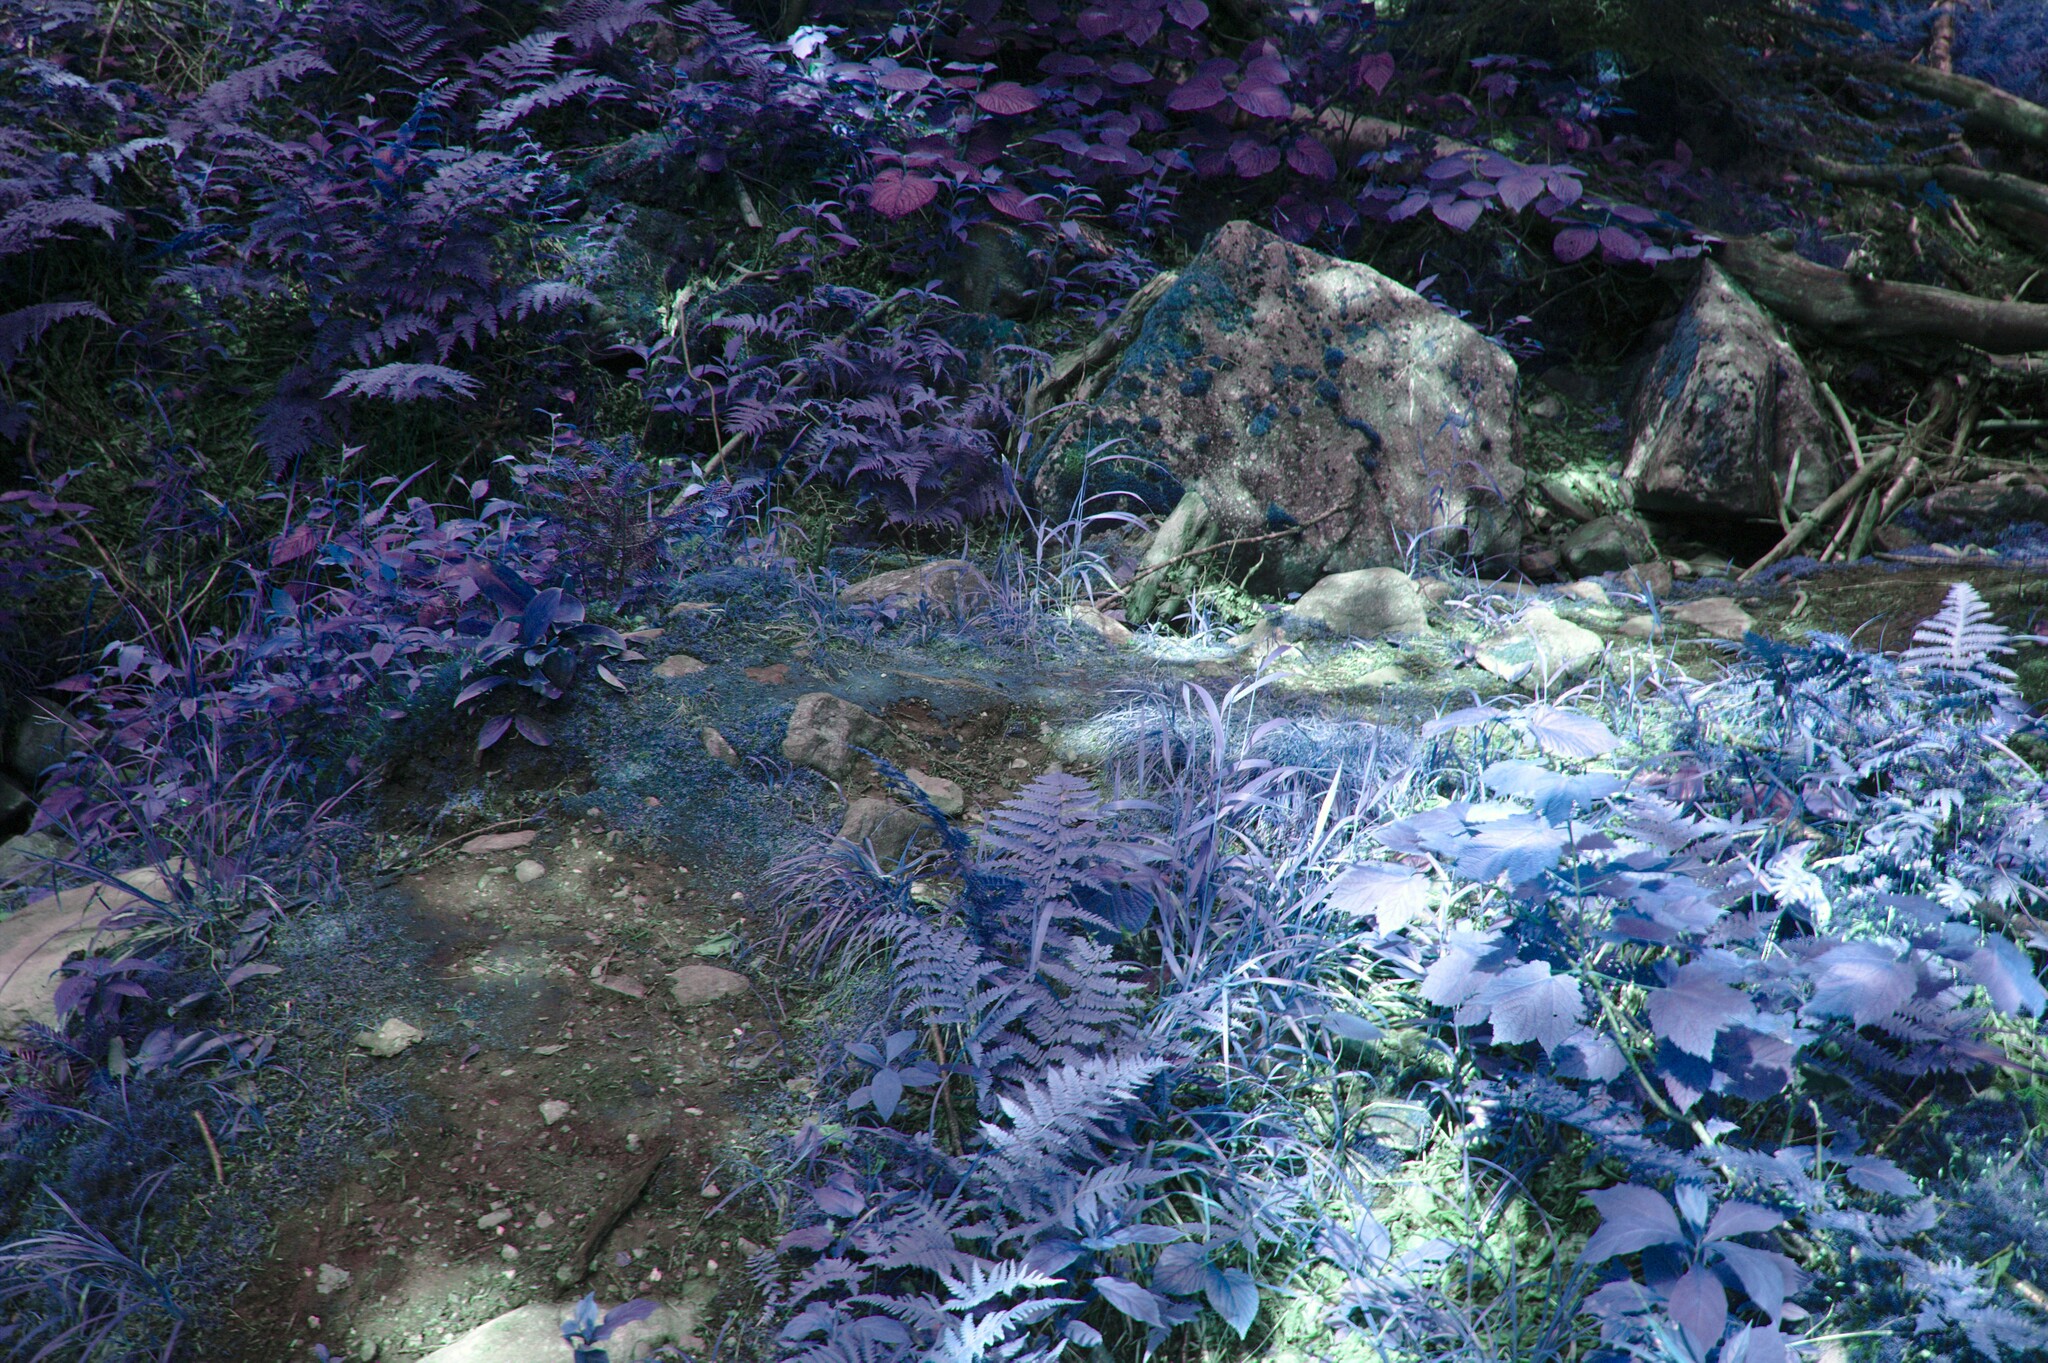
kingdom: Plantae
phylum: Tracheophyta
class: Magnoliopsida
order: Dipsacales
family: Viburnaceae
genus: Viburnum
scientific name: Viburnum lantanoides
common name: Hobblebush
